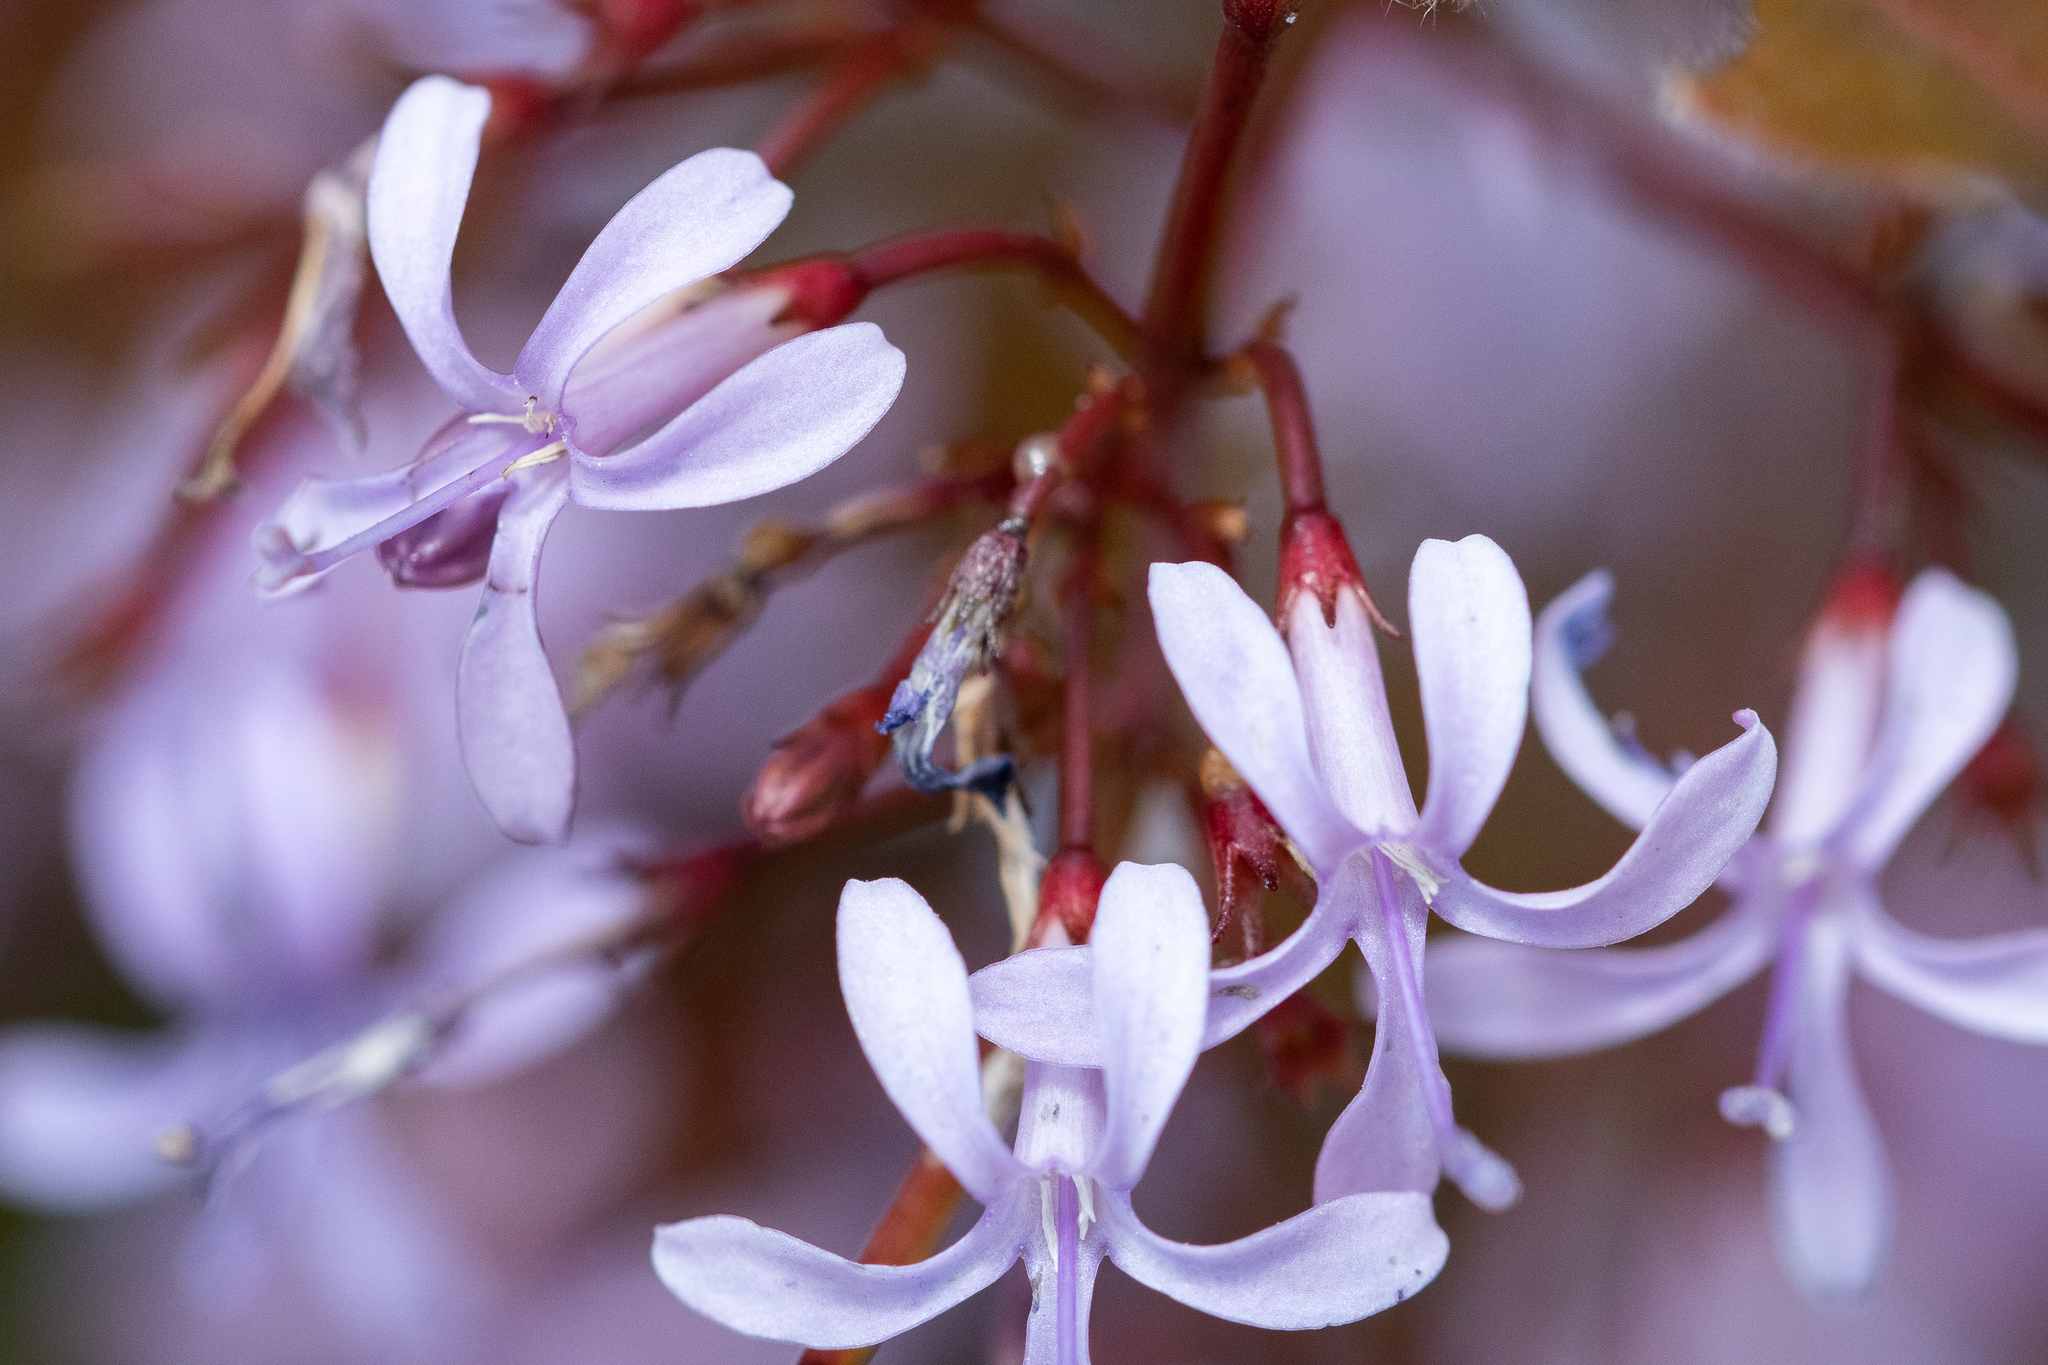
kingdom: Plantae
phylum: Tracheophyta
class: Magnoliopsida
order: Asterales
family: Campanulaceae
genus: Prismatocarpus
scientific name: Prismatocarpus diffusus
